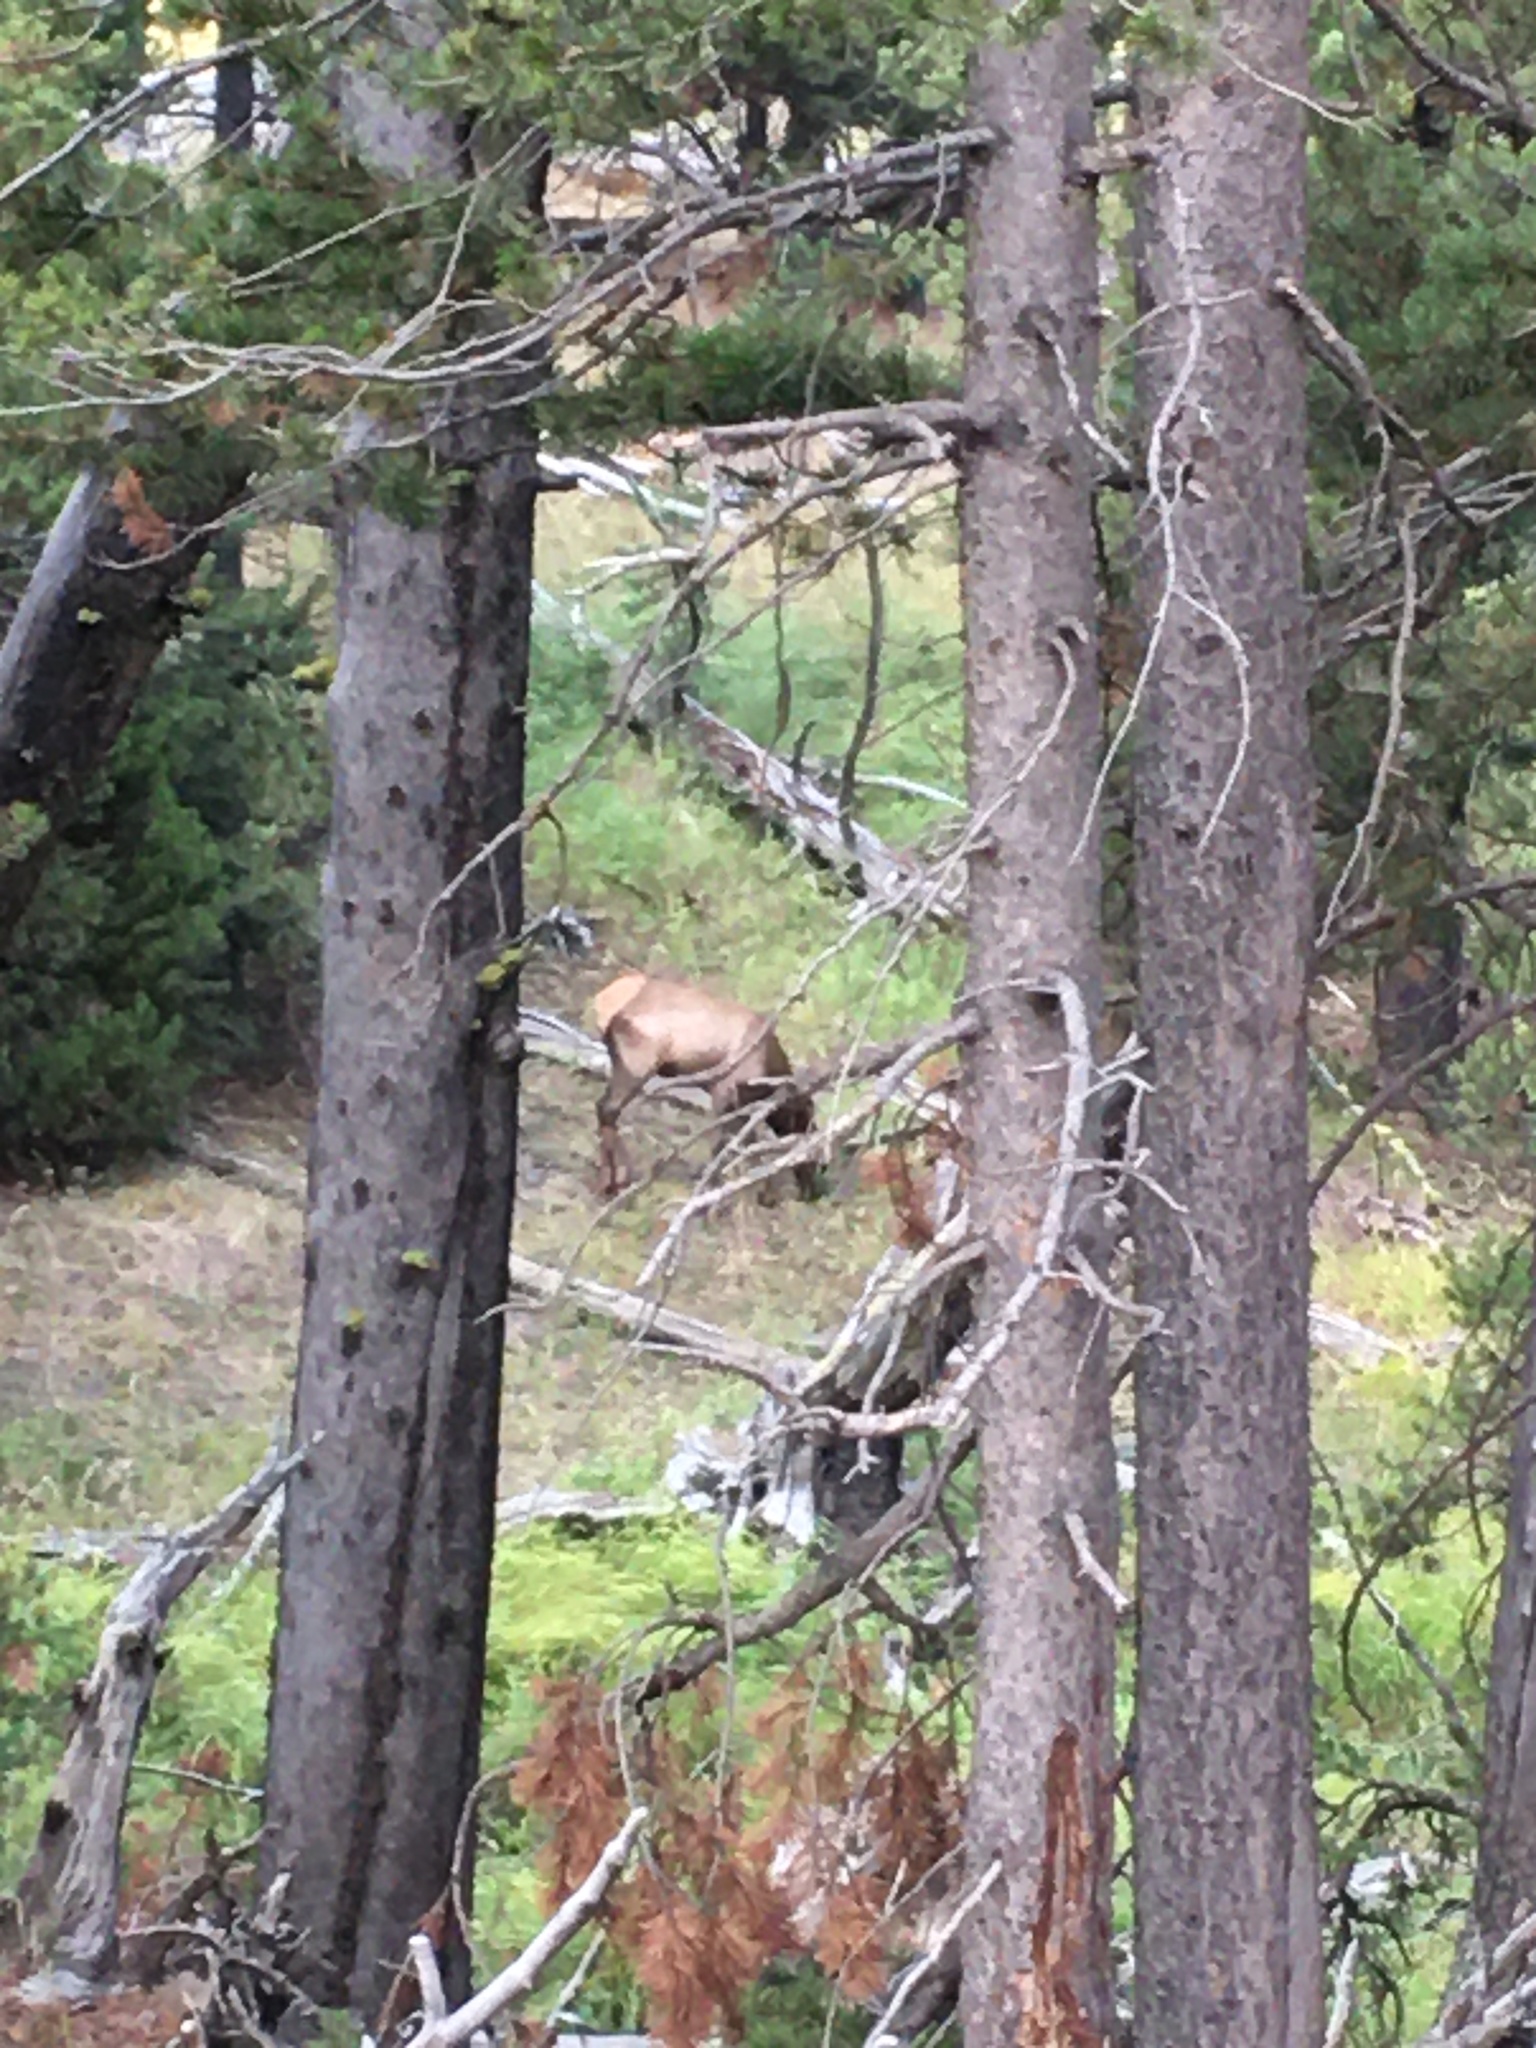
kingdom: Animalia
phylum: Chordata
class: Mammalia
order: Artiodactyla
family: Cervidae
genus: Cervus
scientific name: Cervus elaphus
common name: Red deer
